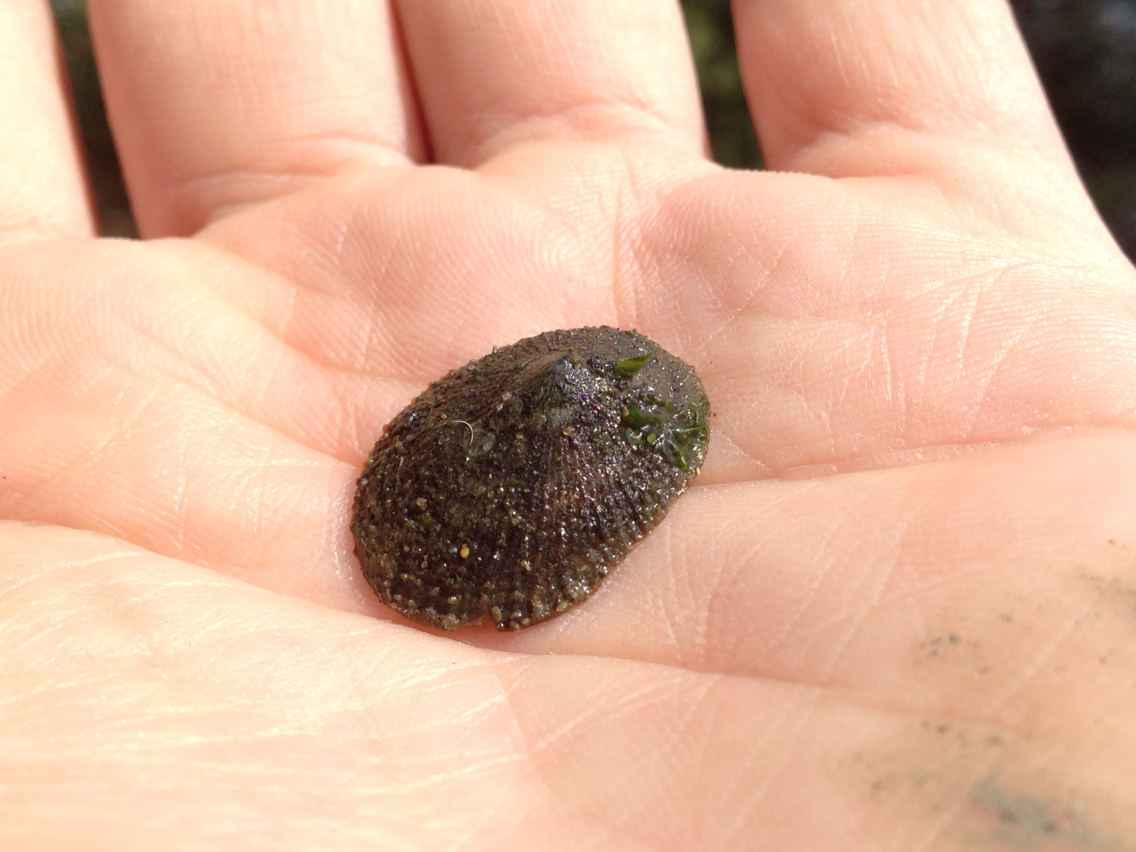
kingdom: Animalia
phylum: Mollusca
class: Gastropoda
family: Lottiidae
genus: Lottia
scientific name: Lottia limatula
